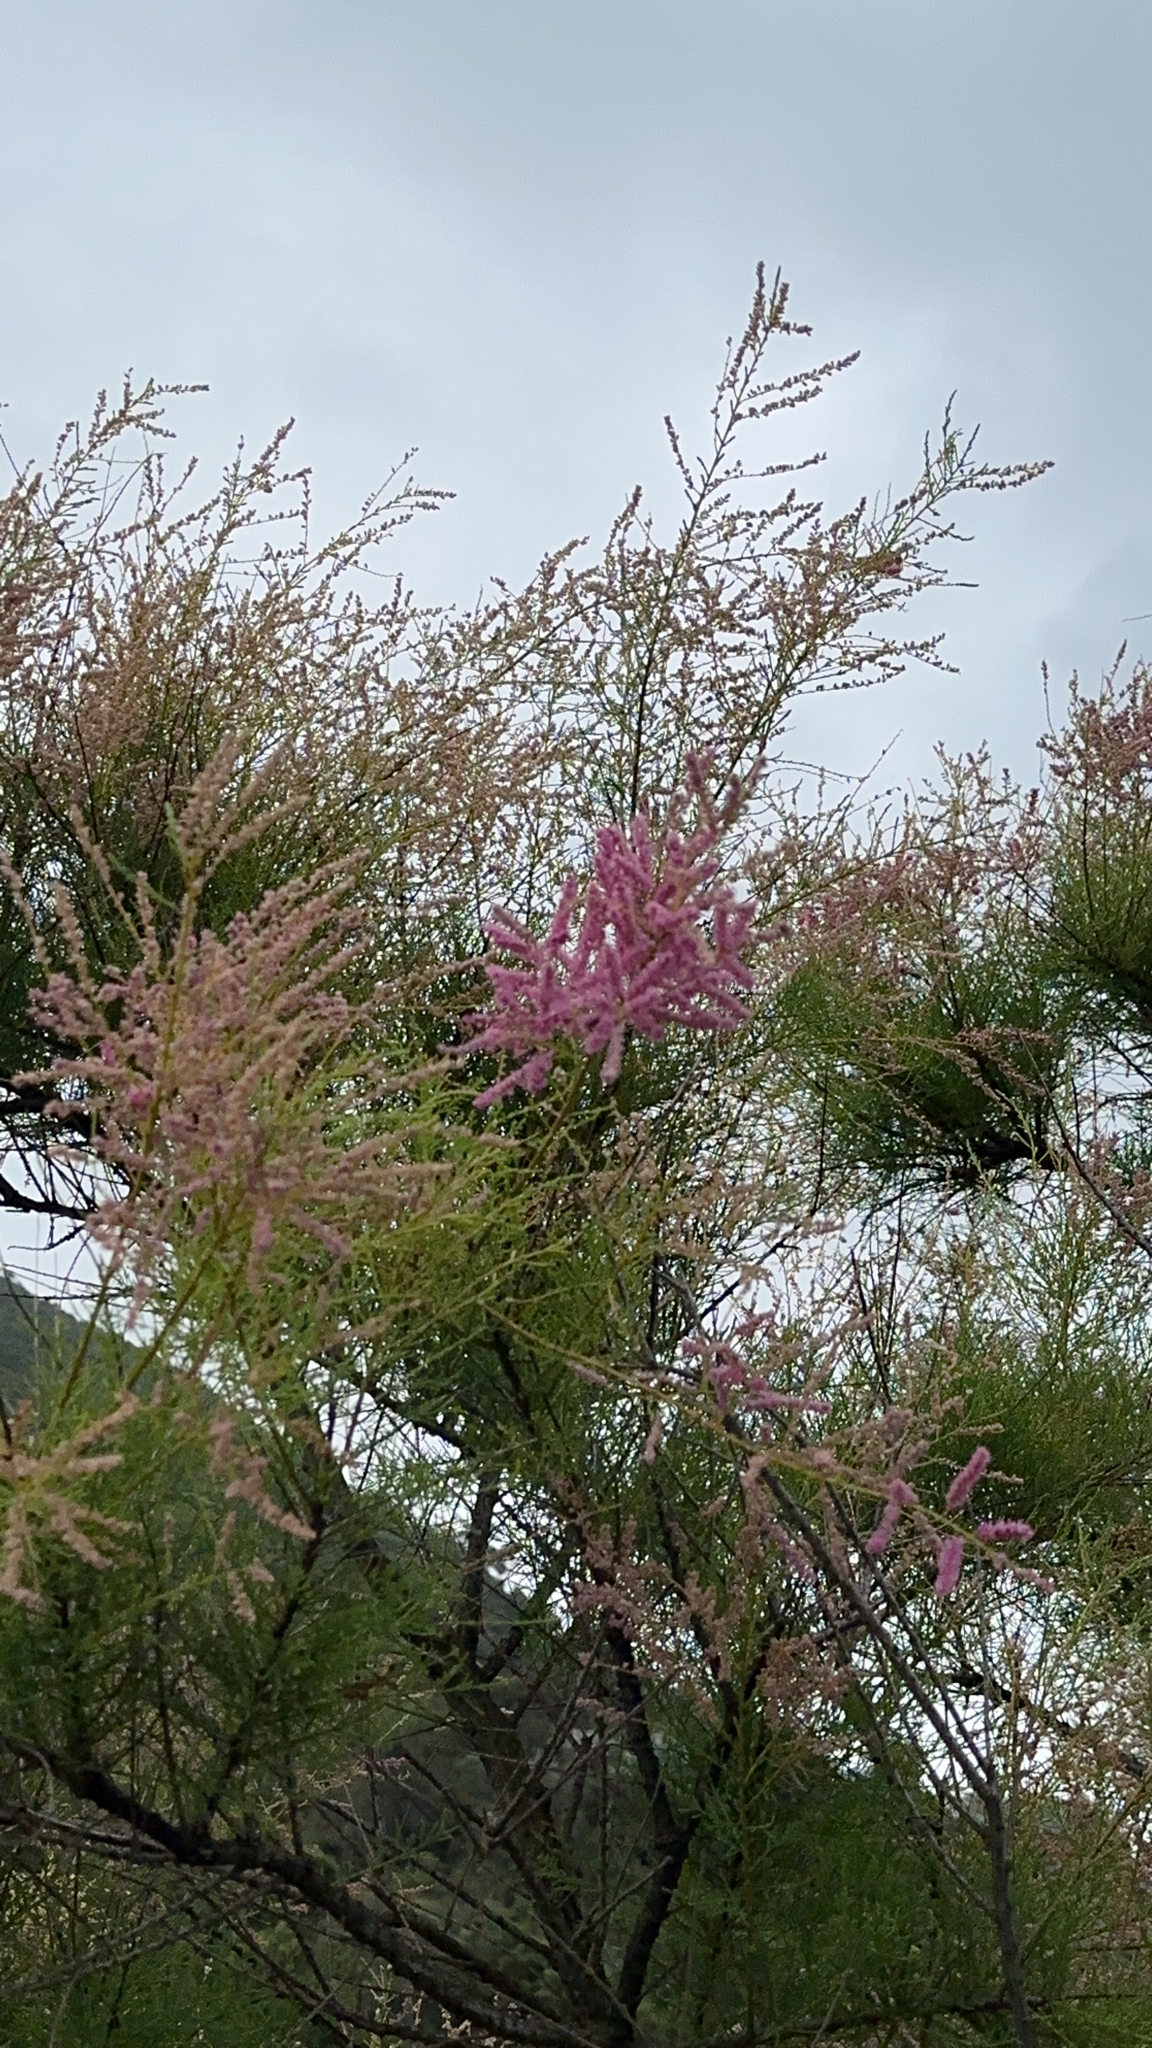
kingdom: Plantae
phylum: Tracheophyta
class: Magnoliopsida
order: Caryophyllales
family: Tamaricaceae
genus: Tamarix
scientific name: Tamarix africana
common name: African tamarisk
